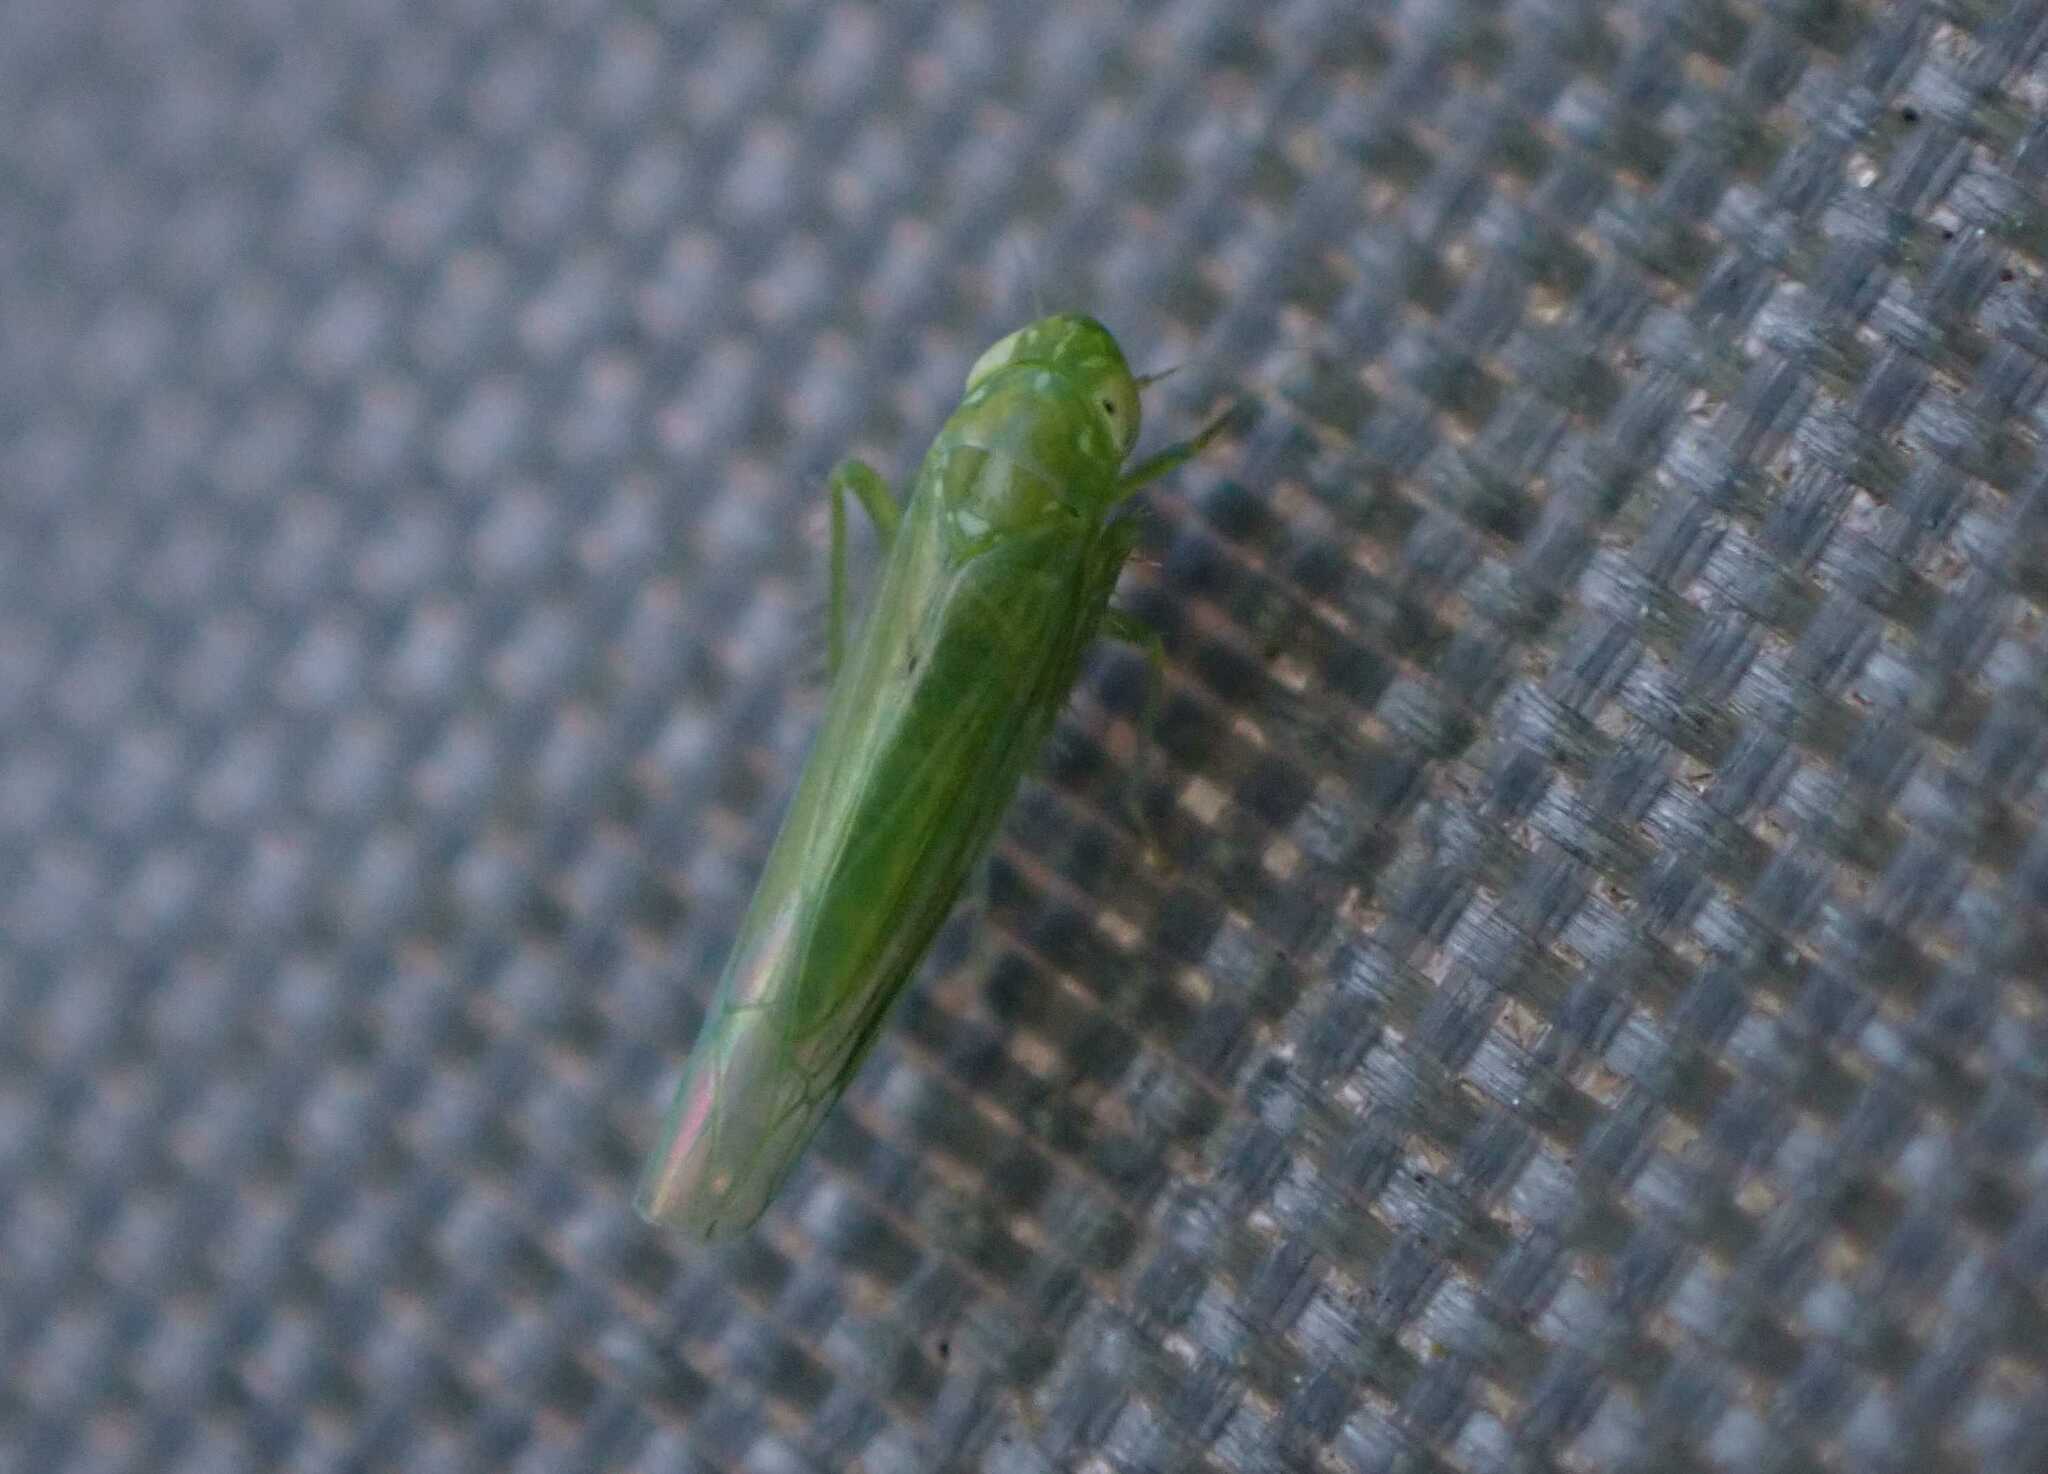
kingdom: Animalia
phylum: Arthropoda
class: Insecta
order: Hemiptera
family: Cicadellidae
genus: Hebata
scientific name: Hebata vitis
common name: The smaller green leafhopper
